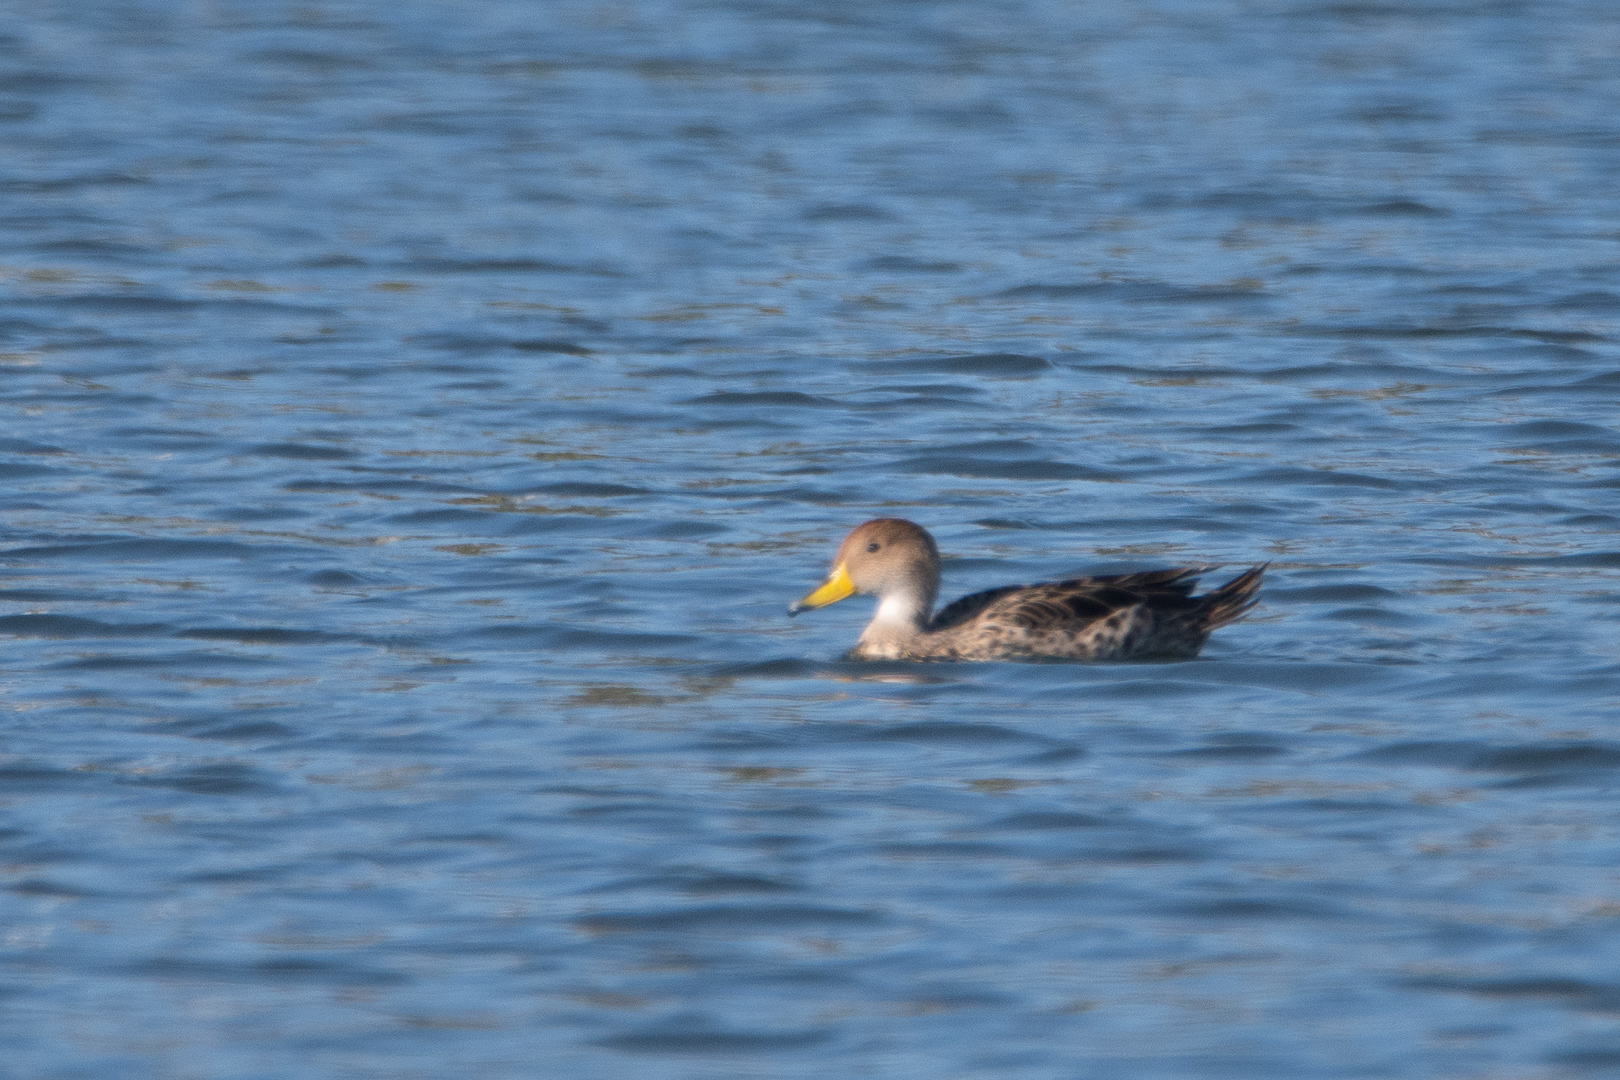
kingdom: Animalia
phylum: Chordata
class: Aves
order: Anseriformes
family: Anatidae
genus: Anas
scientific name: Anas georgica
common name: Yellow-billed pintail
